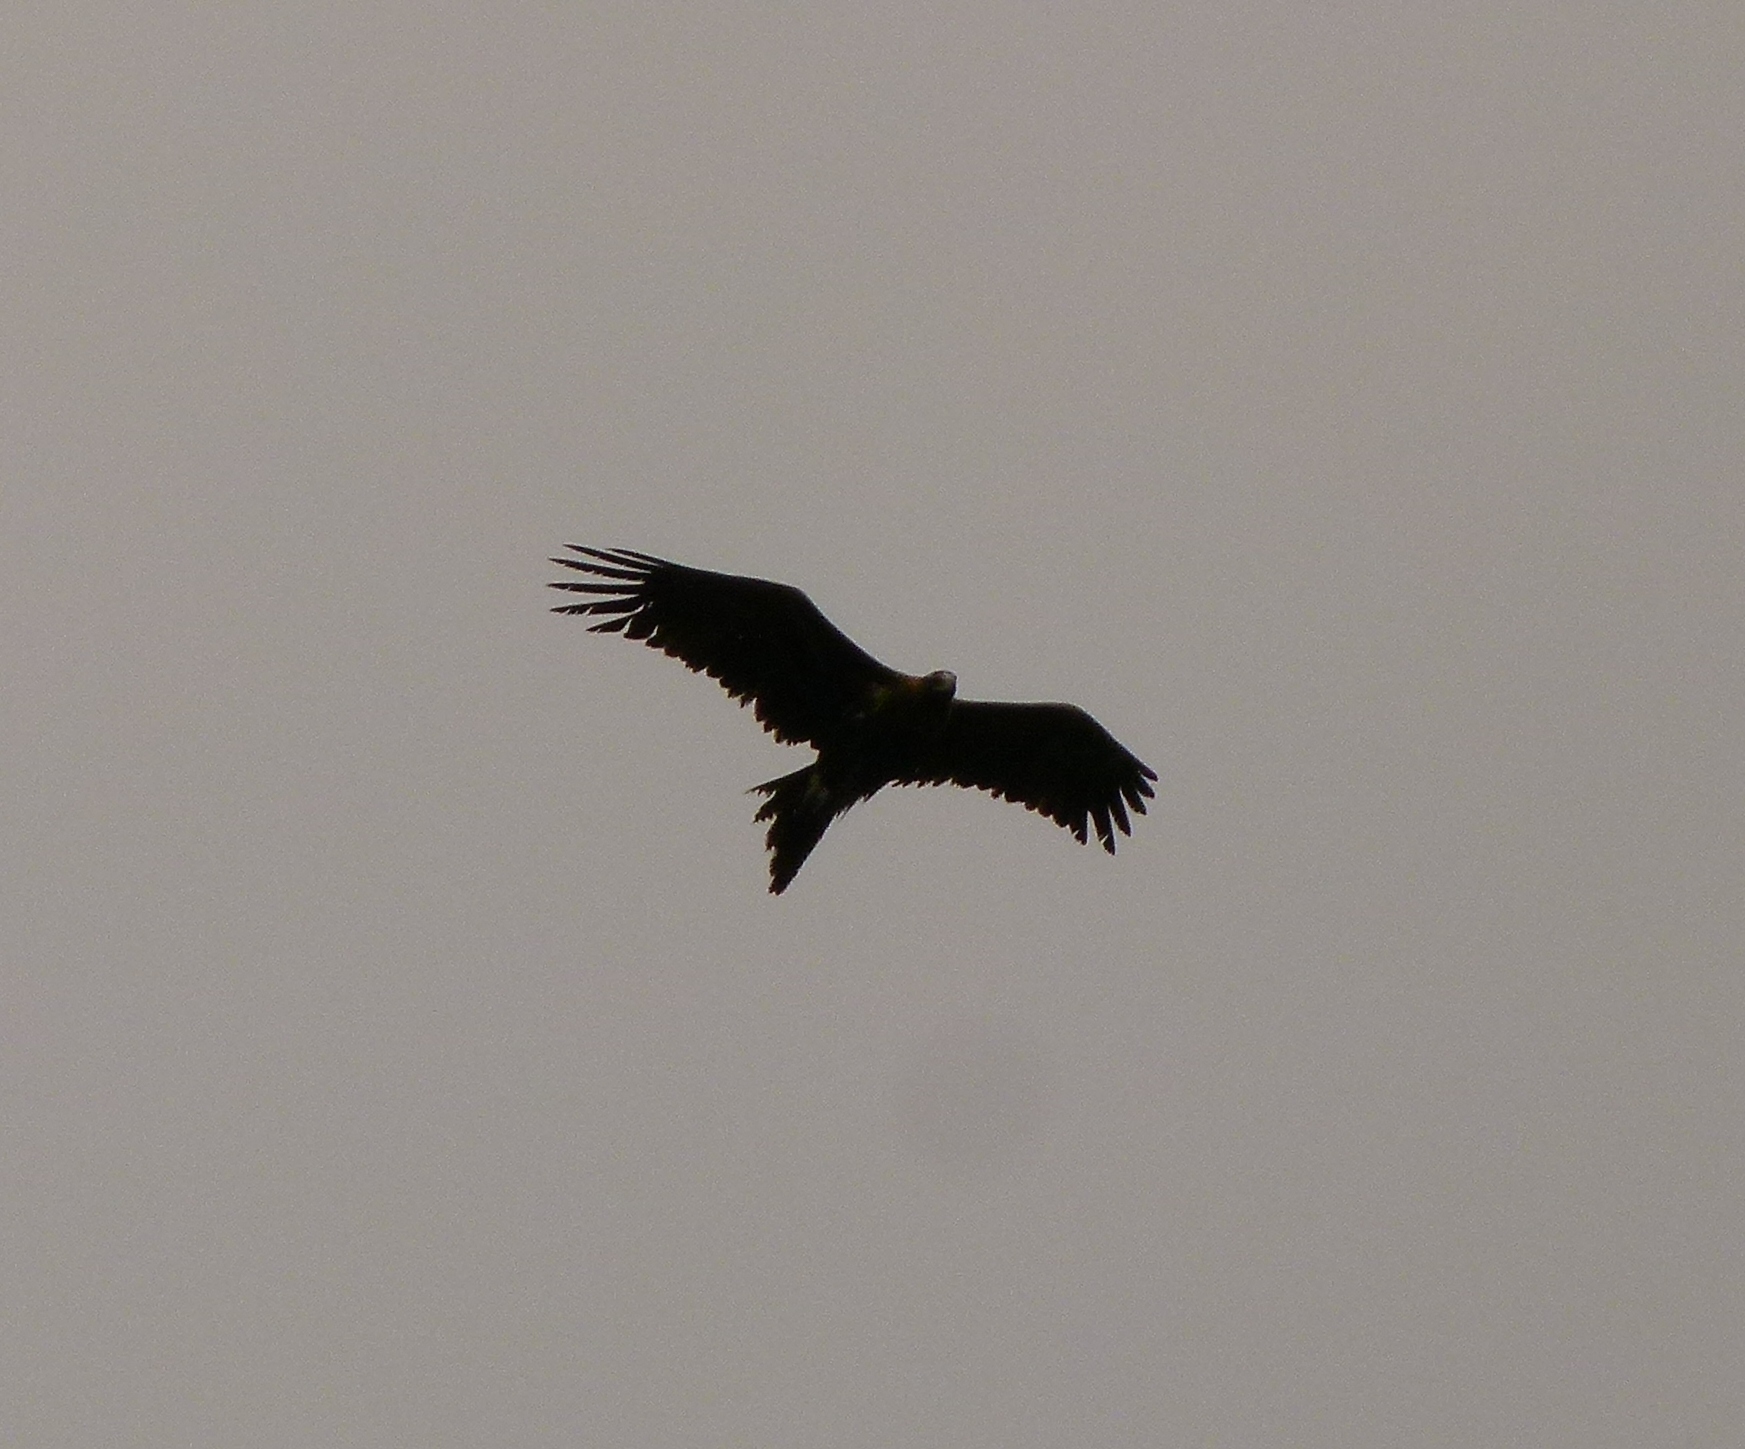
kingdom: Animalia
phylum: Chordata
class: Aves
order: Accipitriformes
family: Accipitridae
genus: Aquila
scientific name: Aquila audax
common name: Wedge-tailed eagle
